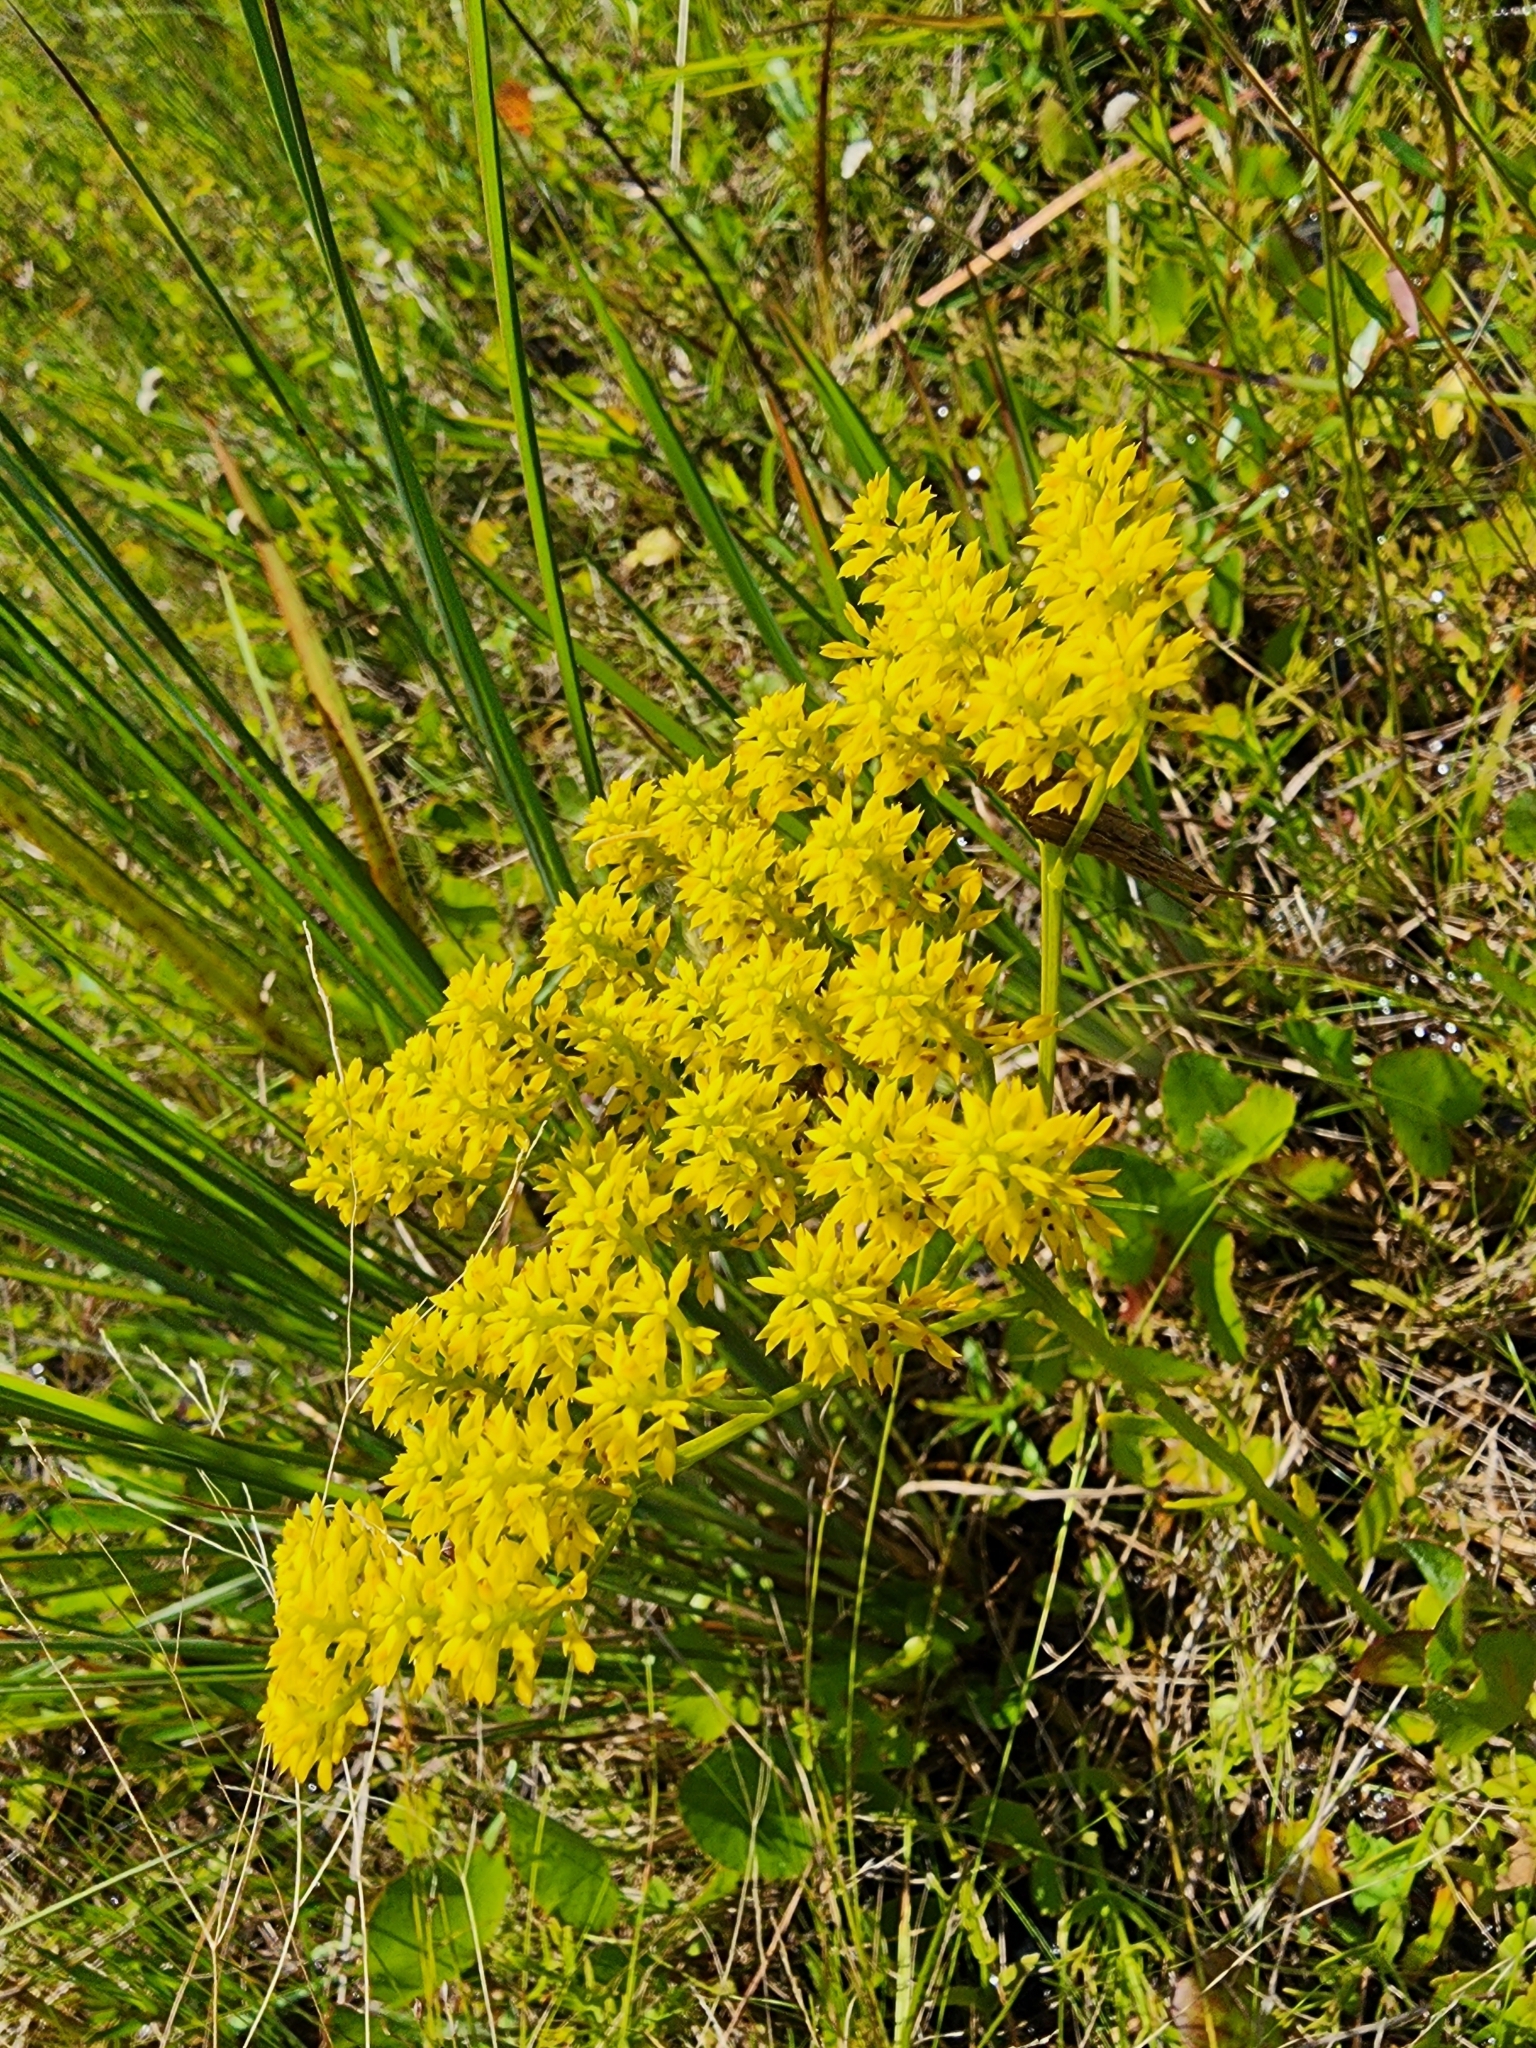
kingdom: Plantae
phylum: Tracheophyta
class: Magnoliopsida
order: Fabales
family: Polygalaceae
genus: Polygala
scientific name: Polygala ramosa
